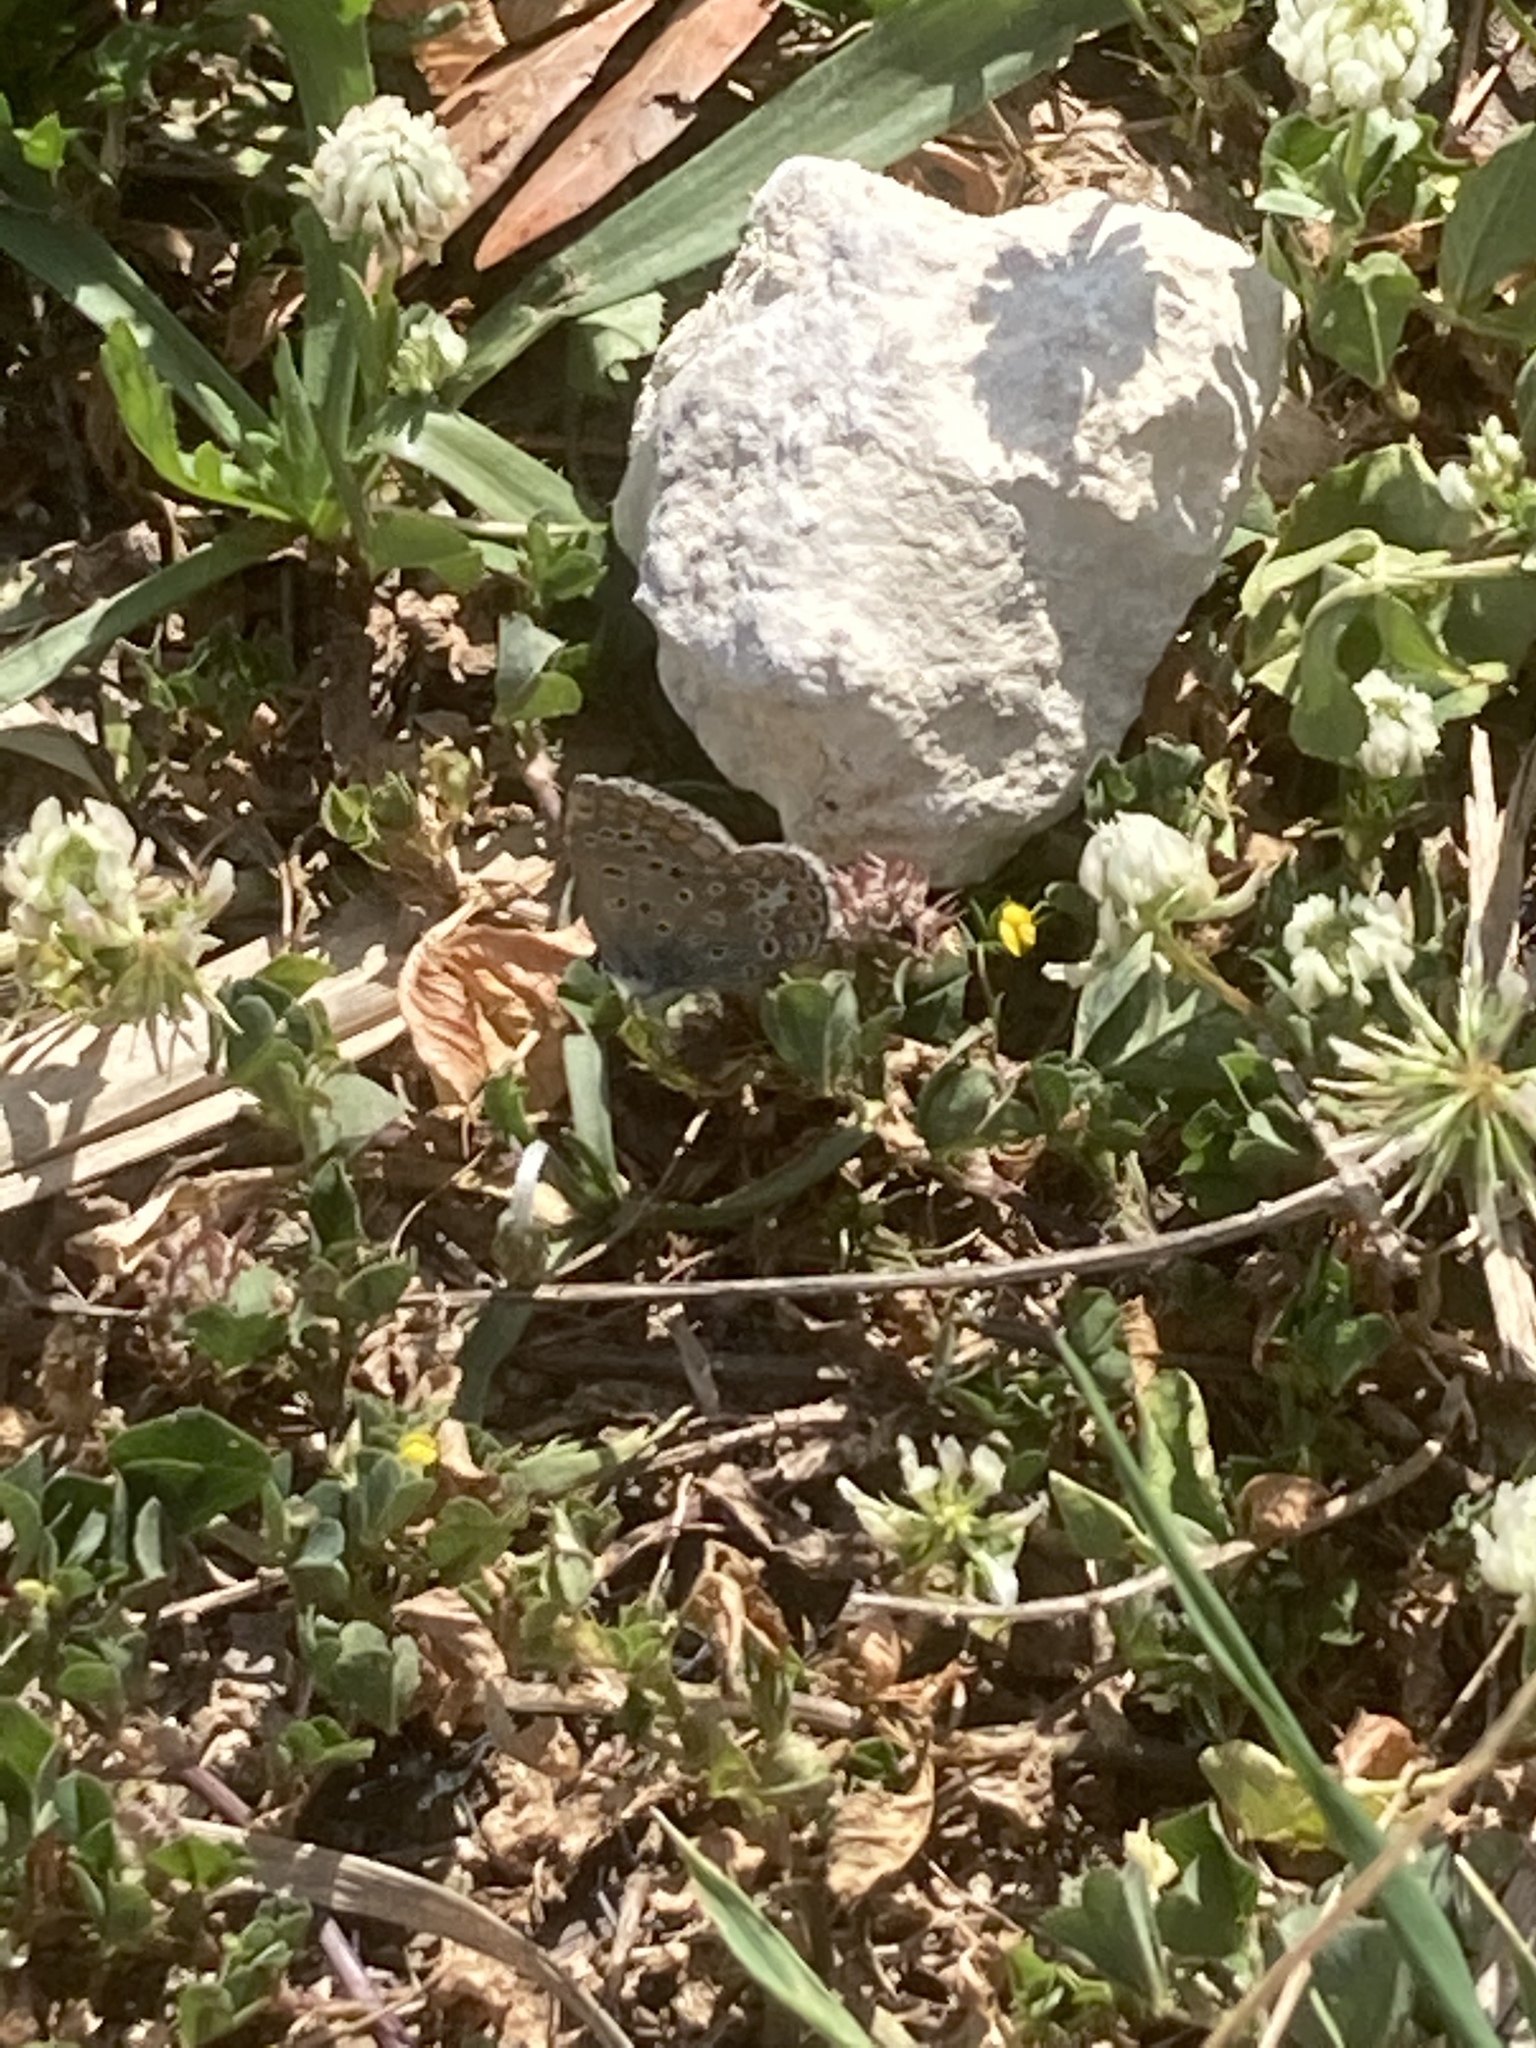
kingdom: Animalia
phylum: Arthropoda
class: Insecta
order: Lepidoptera
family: Lycaenidae
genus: Polyommatus
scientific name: Polyommatus icarus
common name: Common blue
